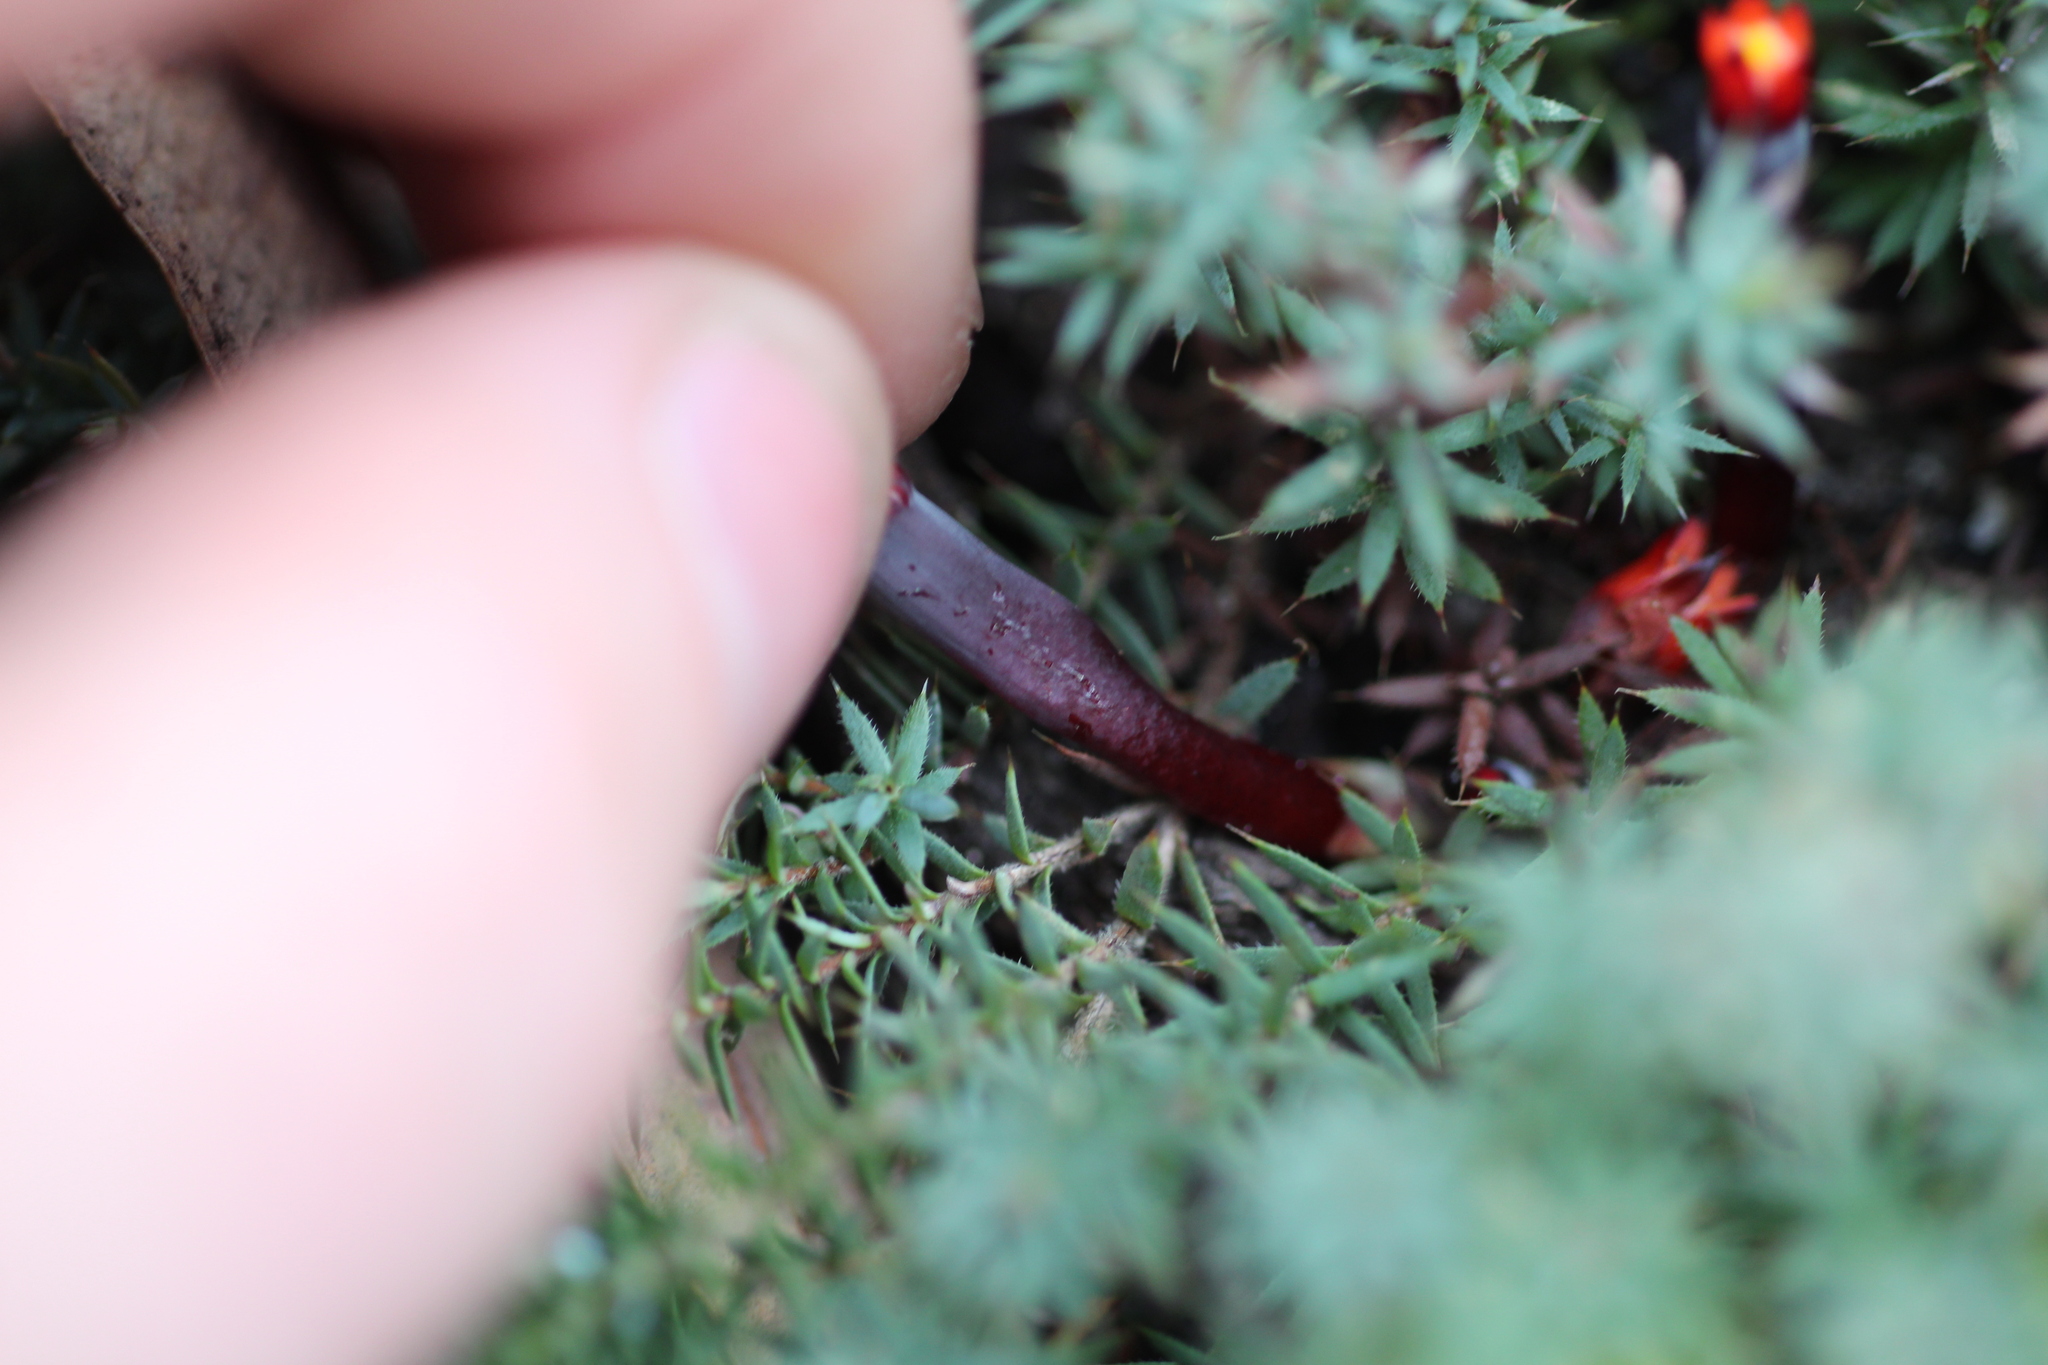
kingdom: Plantae
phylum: Tracheophyta
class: Magnoliopsida
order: Ericales
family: Ericaceae
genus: Styphelia
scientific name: Styphelia discolor
